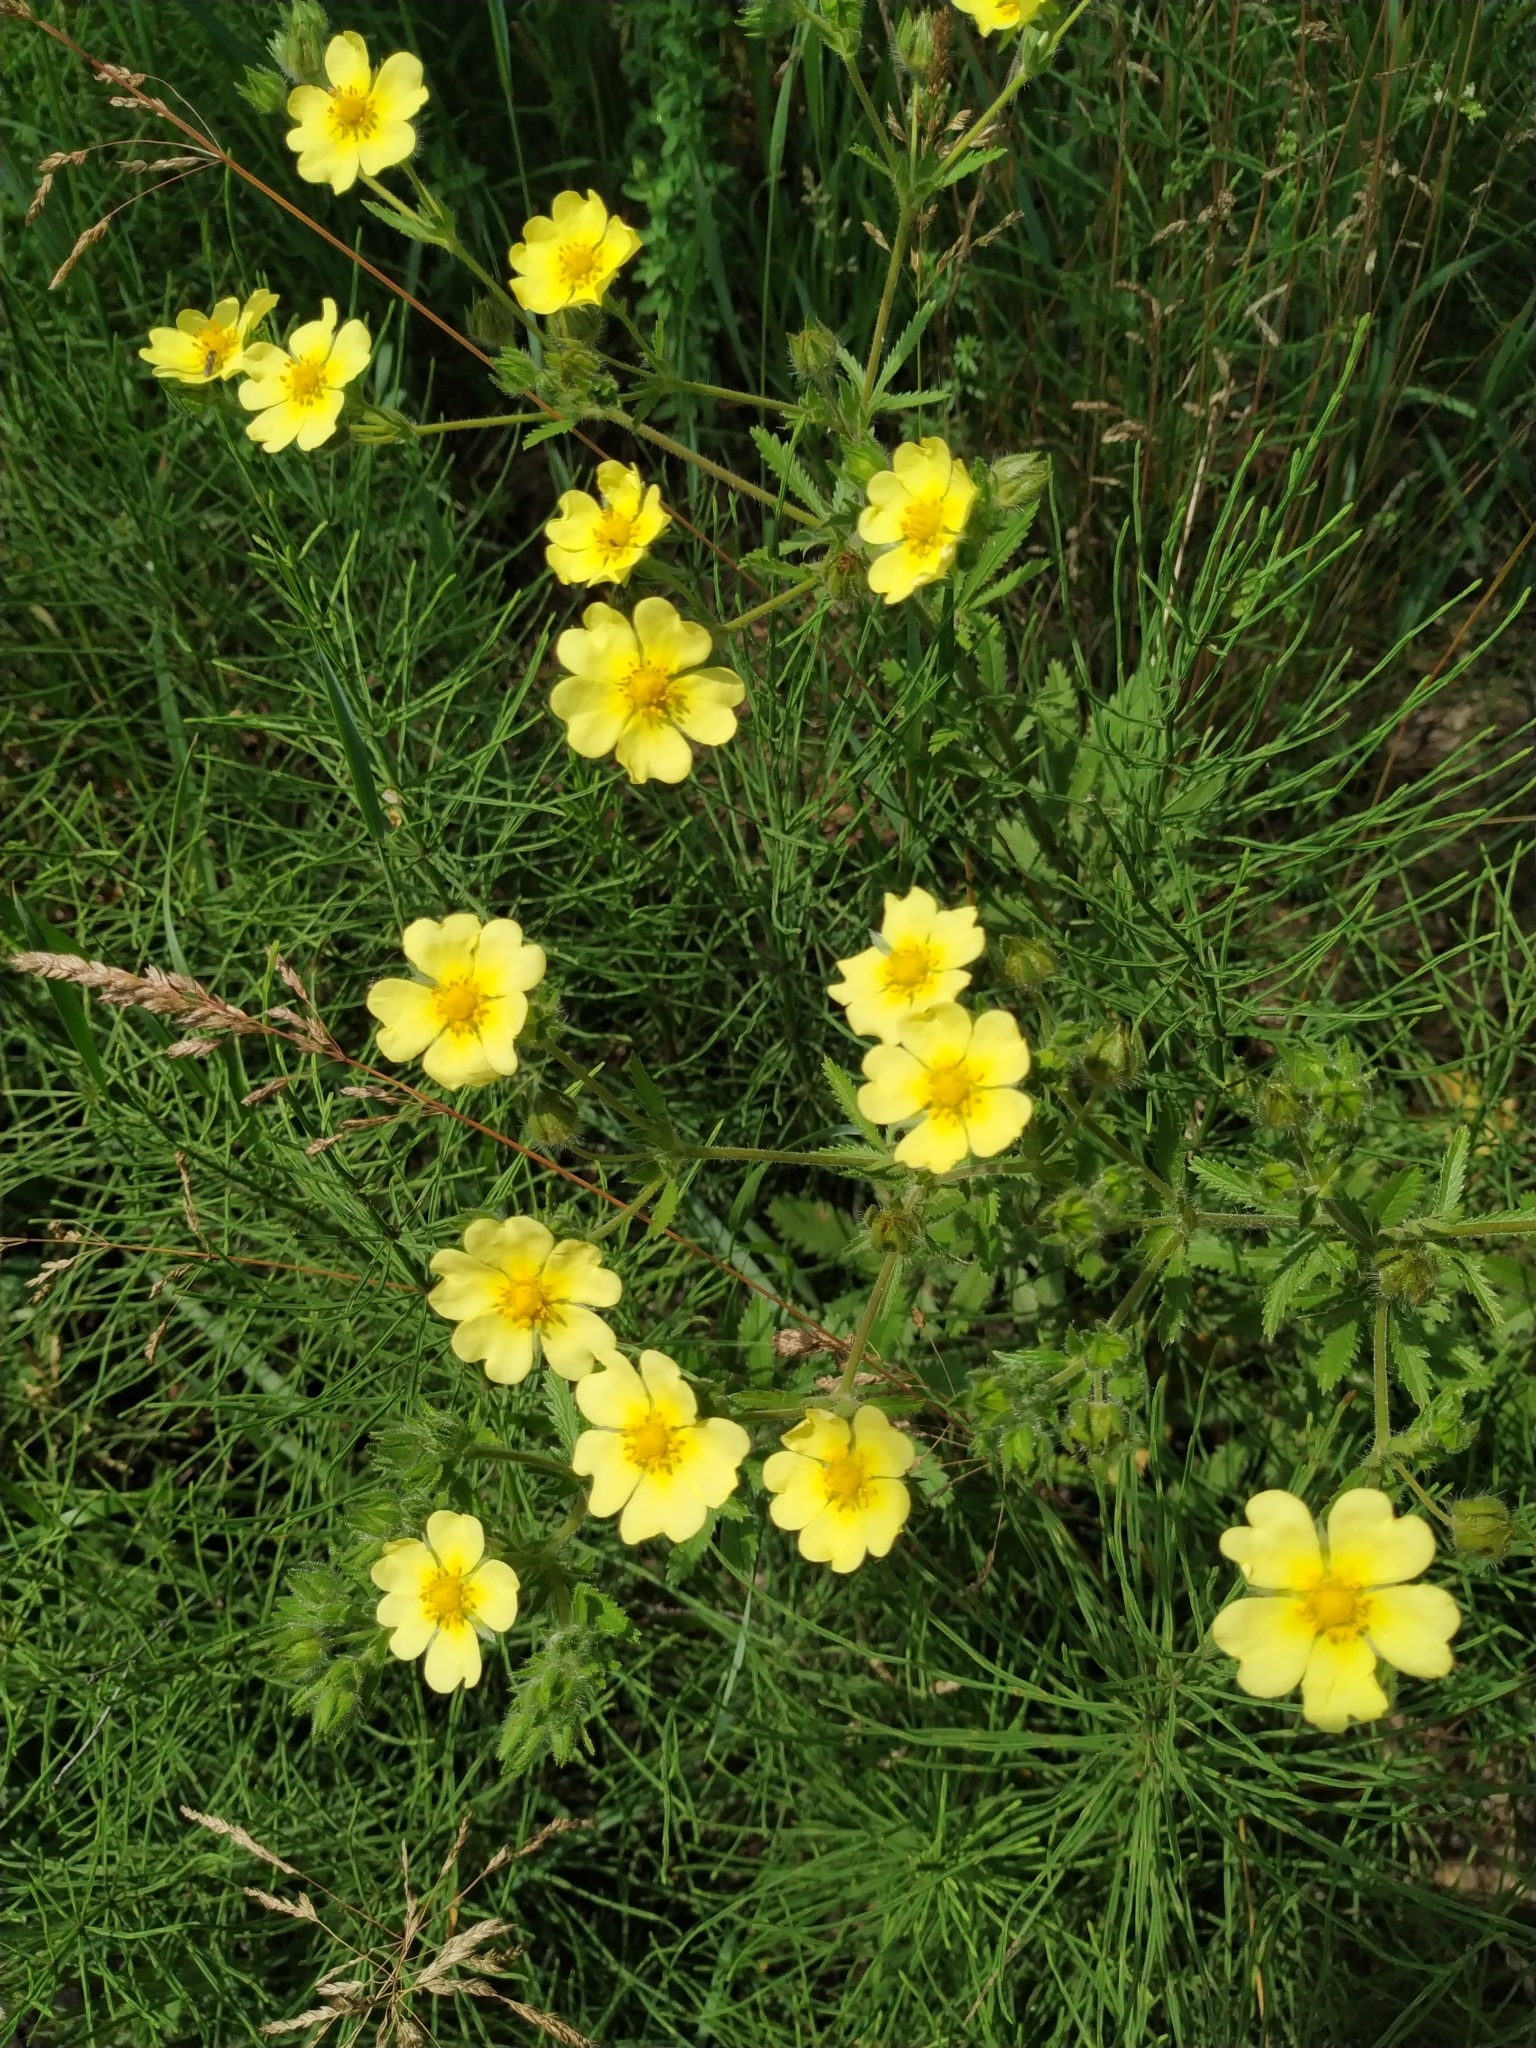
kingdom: Plantae
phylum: Tracheophyta
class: Magnoliopsida
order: Rosales
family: Rosaceae
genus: Potentilla
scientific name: Potentilla recta
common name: Sulphur cinquefoil
